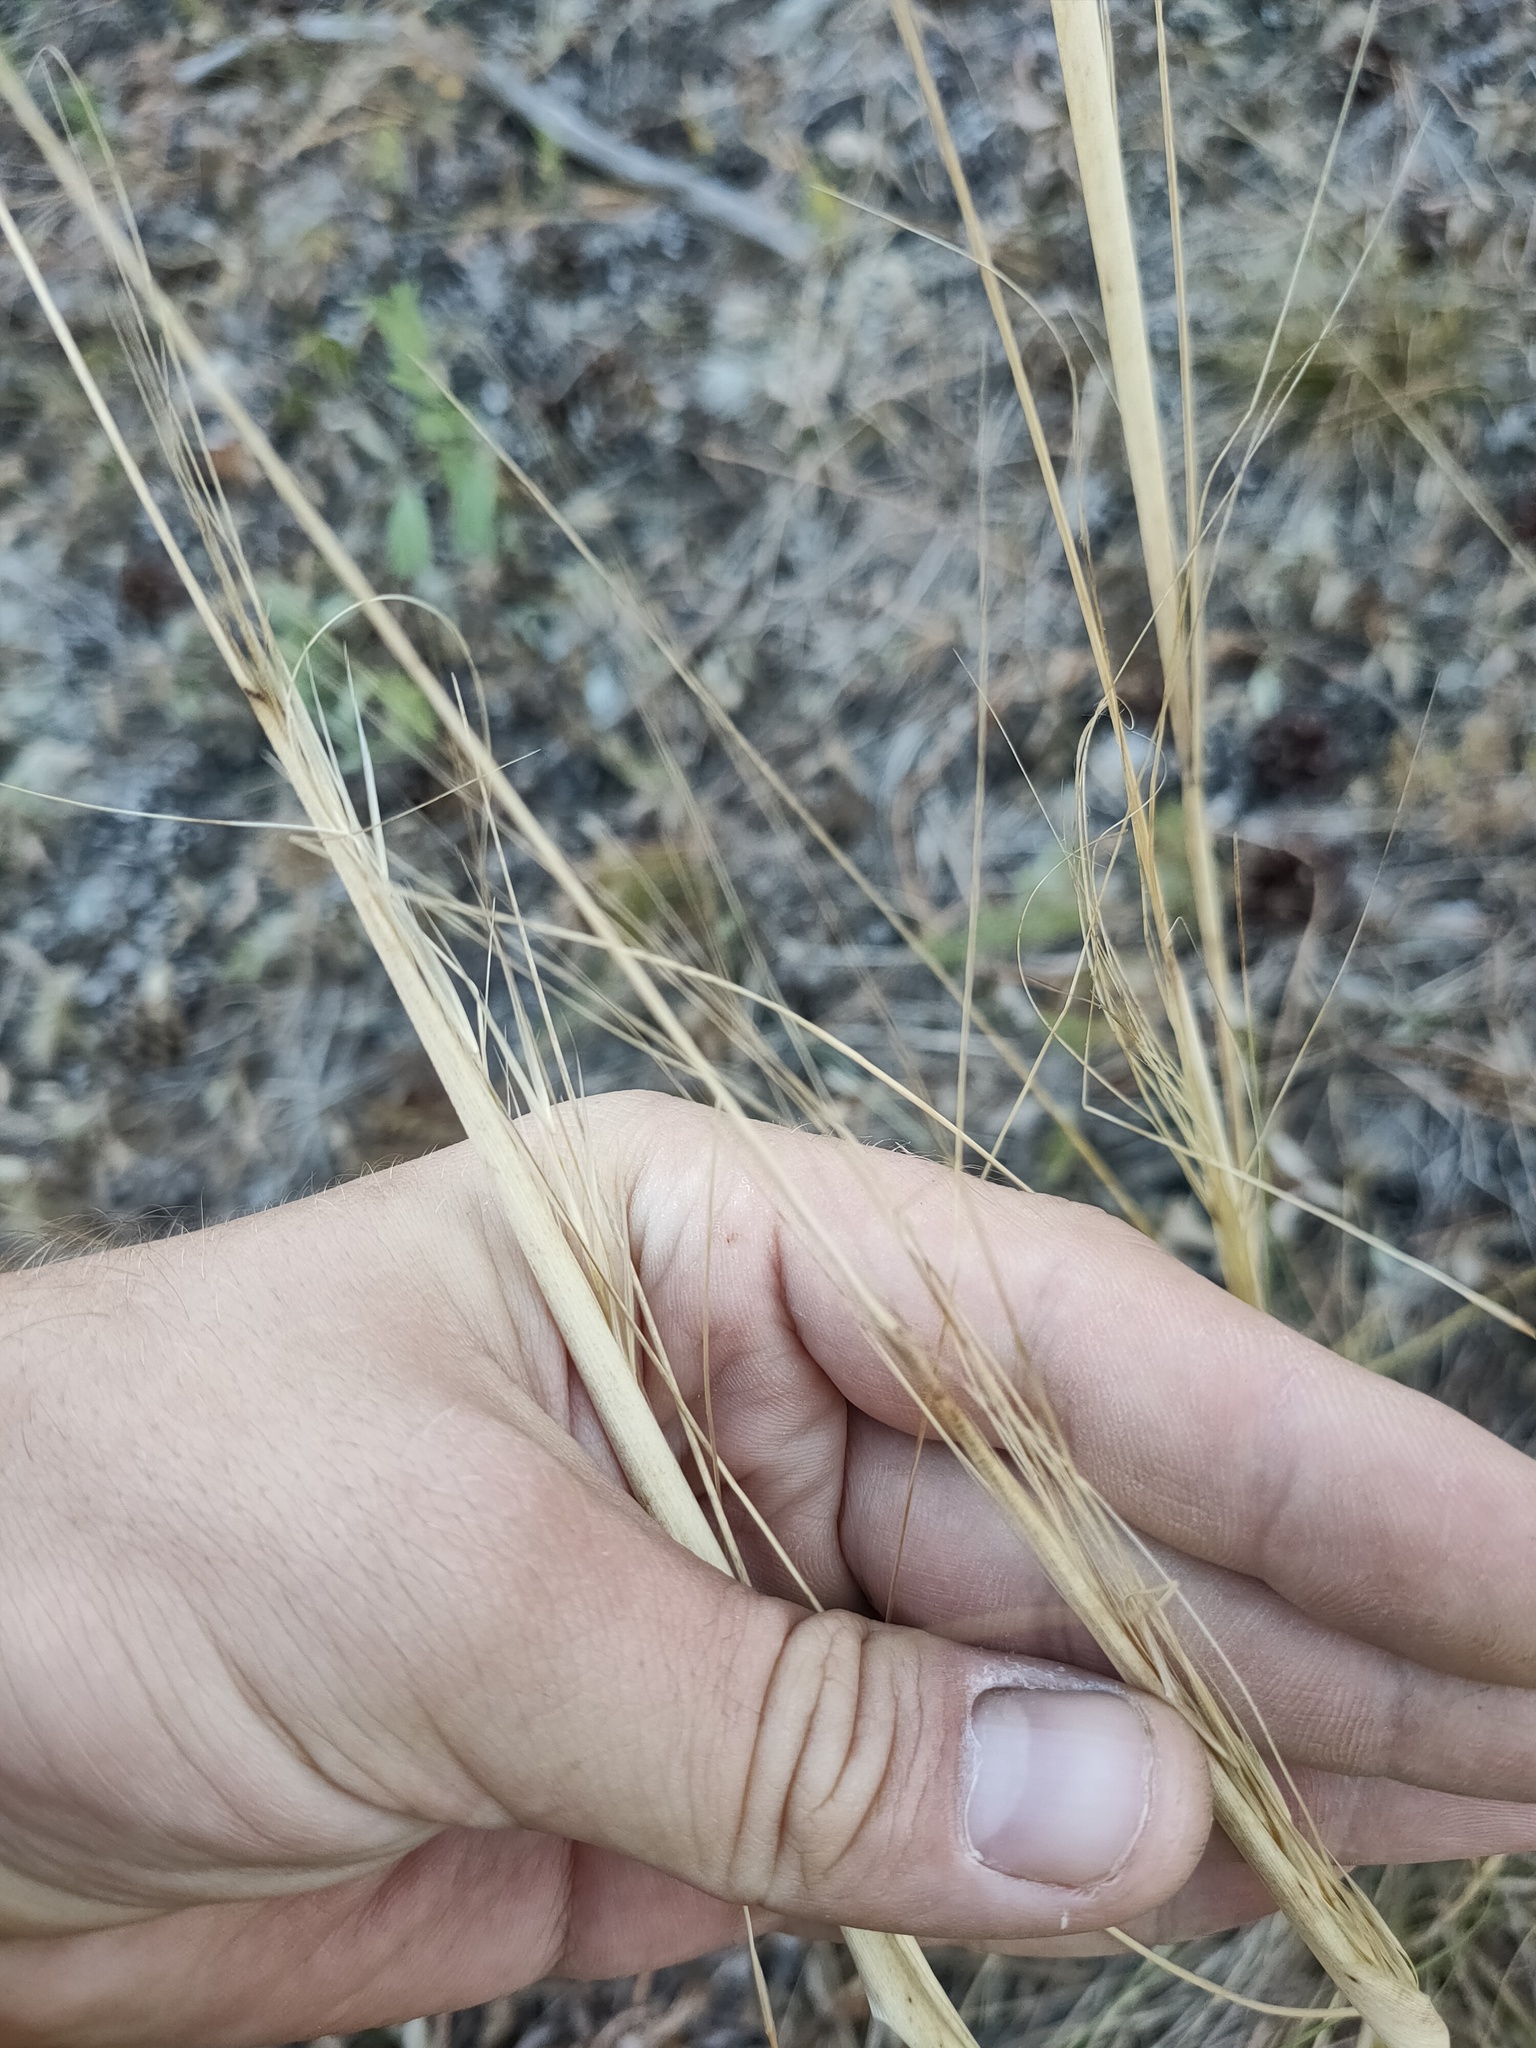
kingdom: Plantae
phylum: Tracheophyta
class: Liliopsida
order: Poales
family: Poaceae
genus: Stipa
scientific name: Stipa capillata
